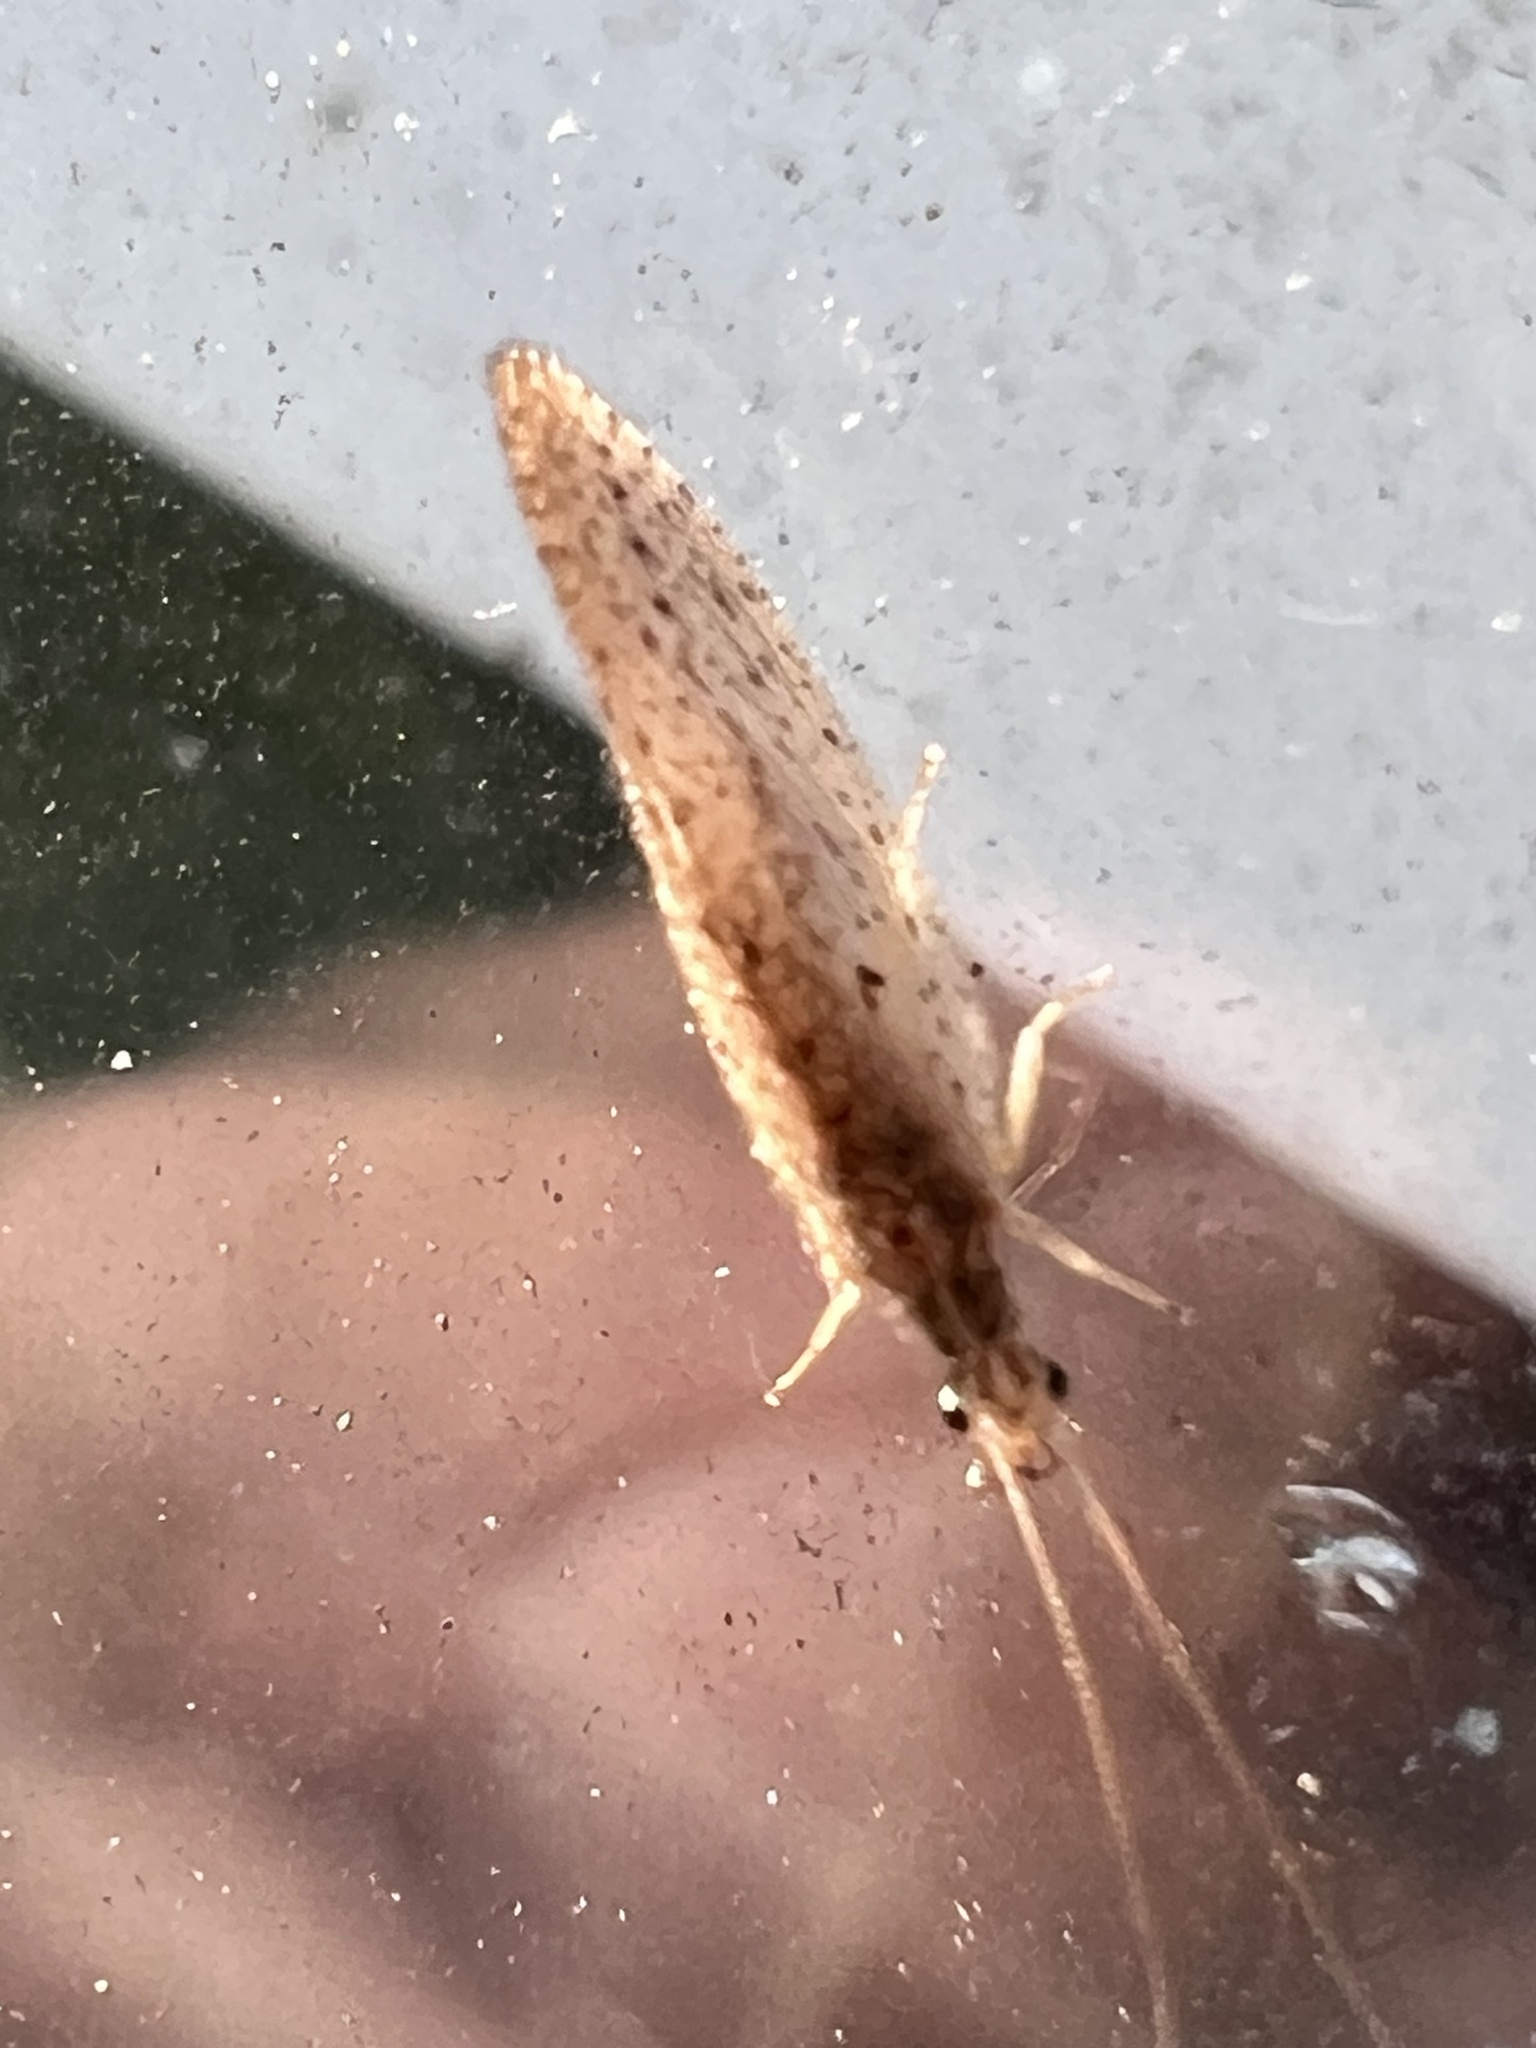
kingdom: Animalia
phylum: Arthropoda
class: Insecta
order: Neuroptera
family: Hemerobiidae
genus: Micromus
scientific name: Micromus subanticus
